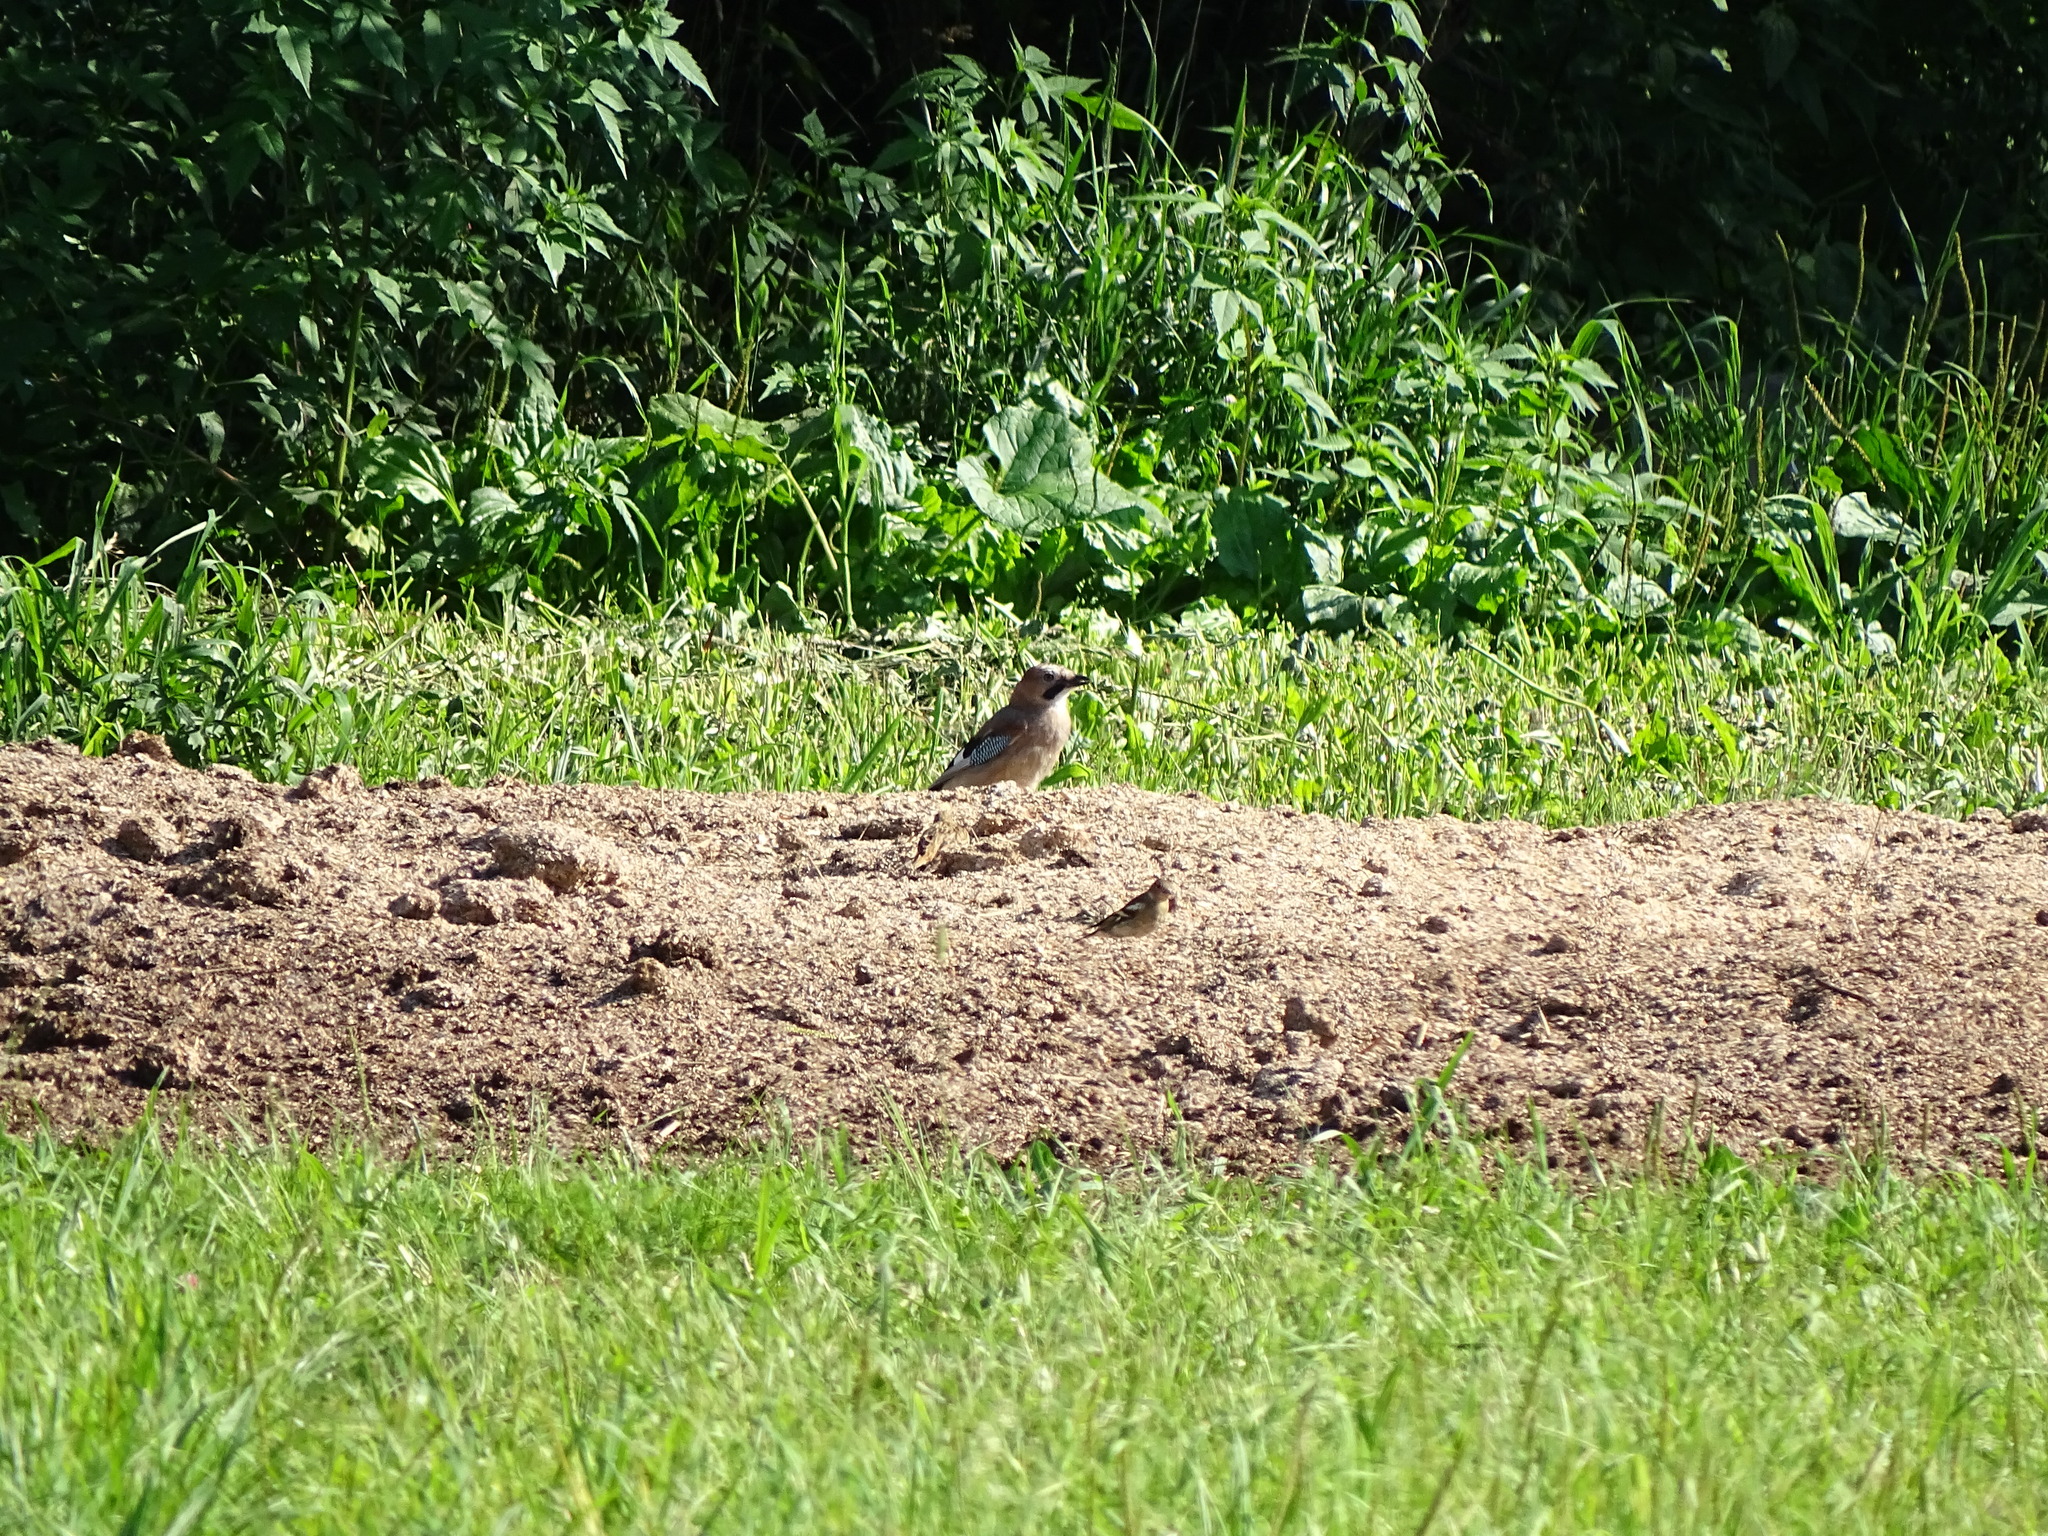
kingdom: Animalia
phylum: Chordata
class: Aves
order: Passeriformes
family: Corvidae
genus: Garrulus
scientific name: Garrulus glandarius
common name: Eurasian jay
